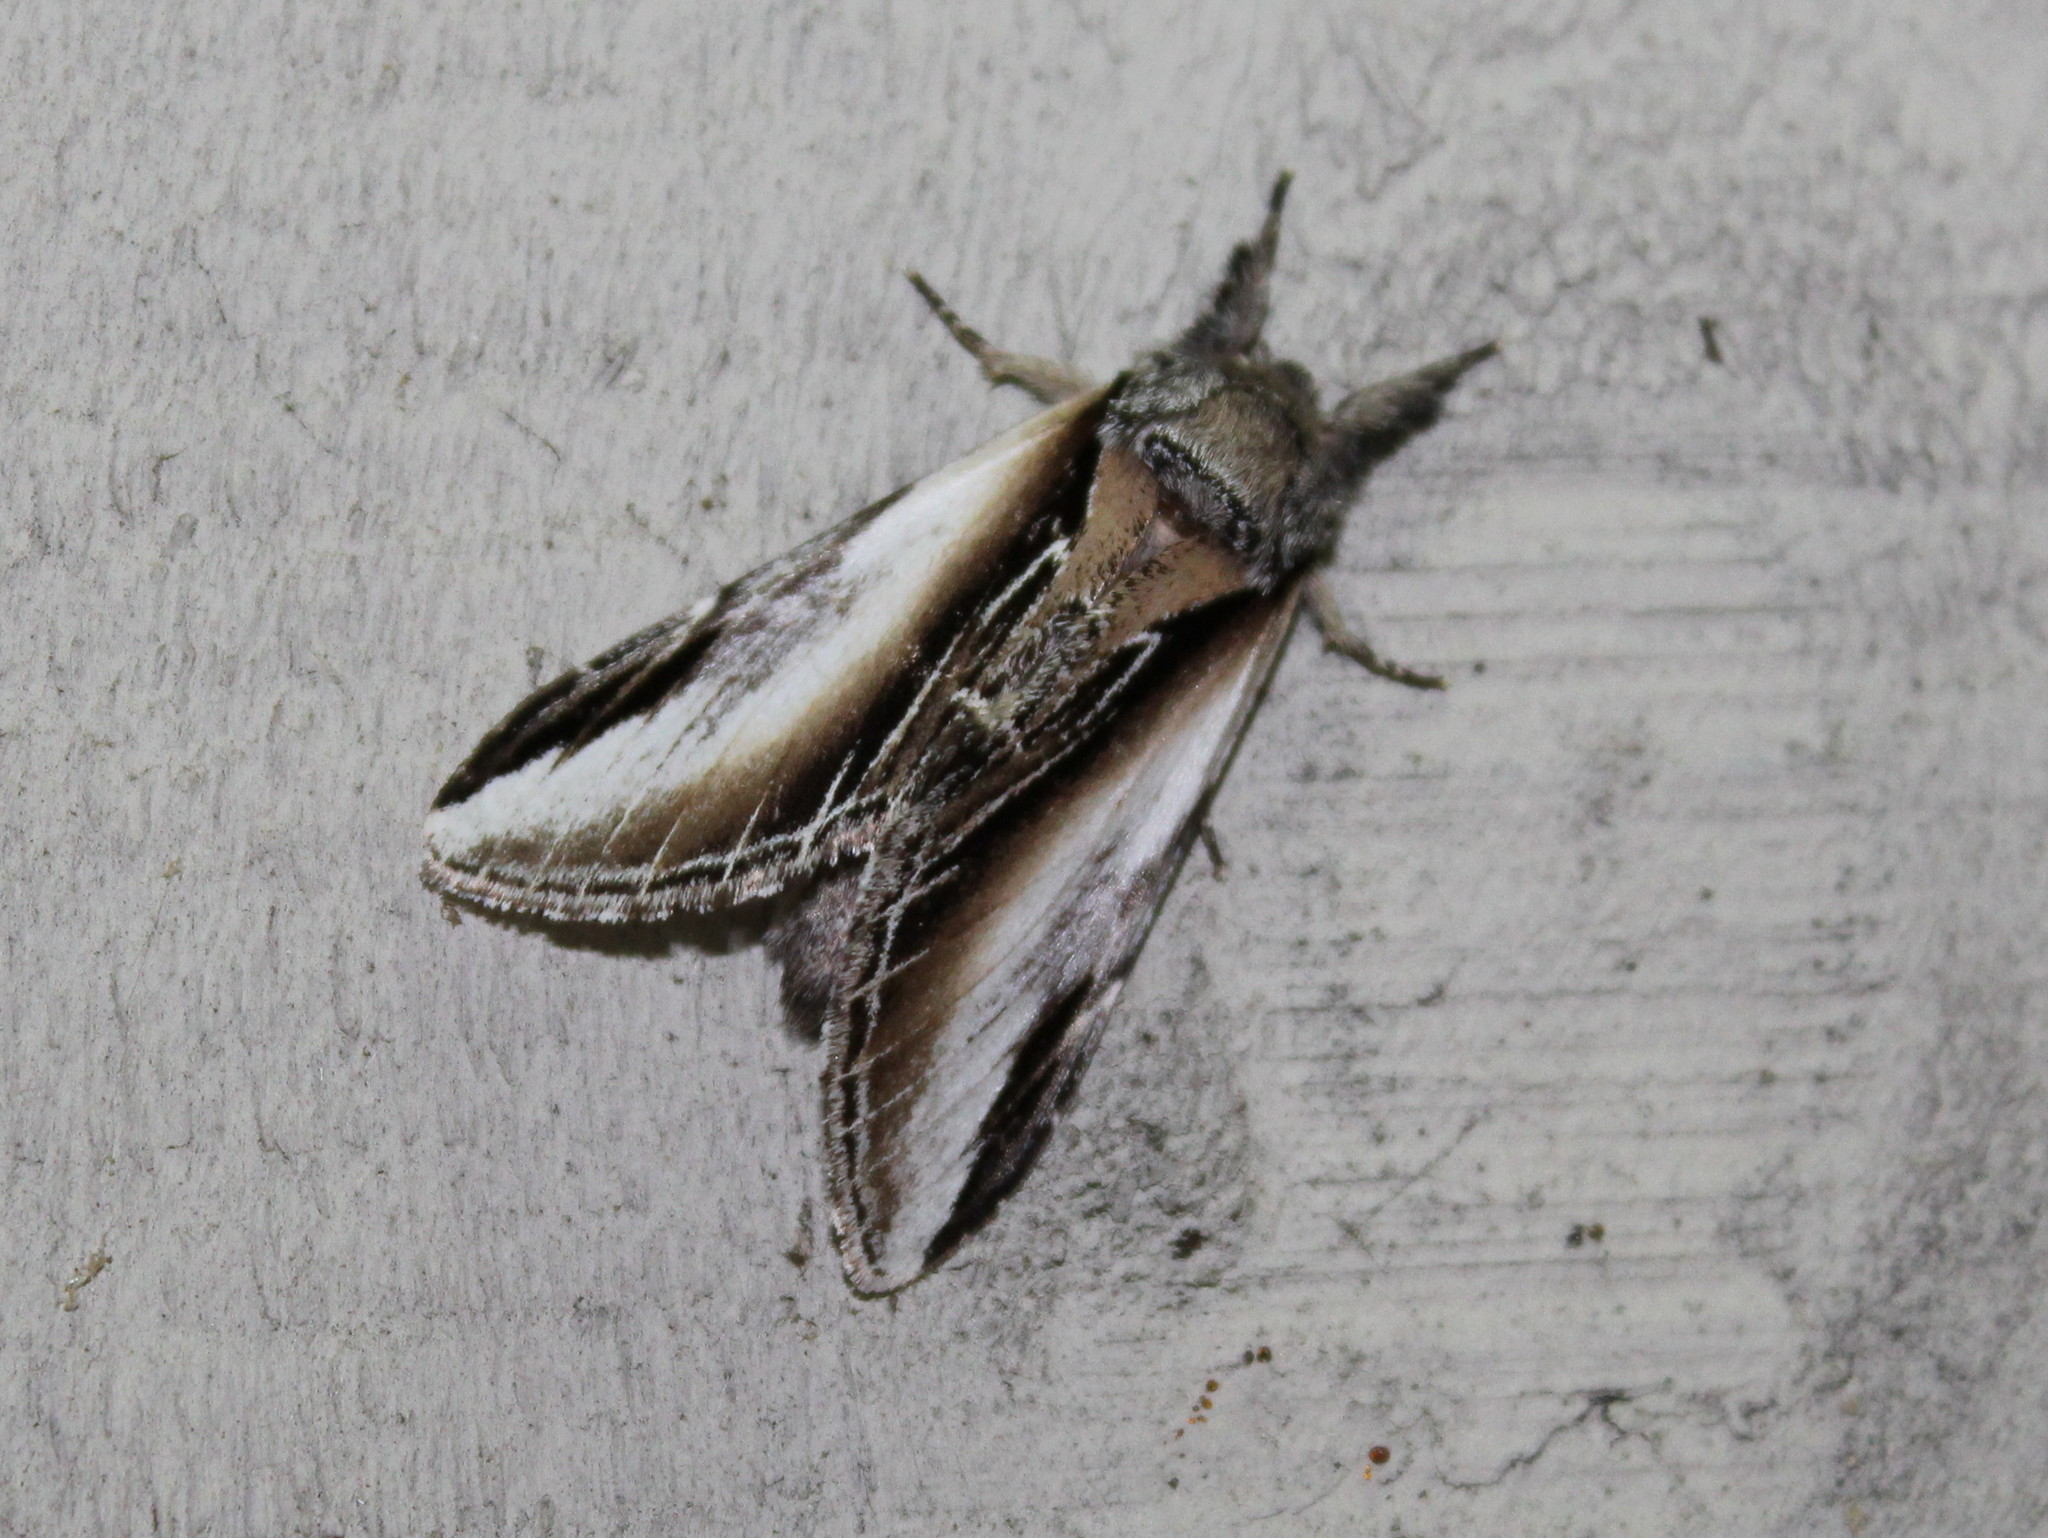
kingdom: Animalia
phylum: Arthropoda
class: Insecta
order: Lepidoptera
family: Notodontidae
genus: Pheosia
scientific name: Pheosia rimosa
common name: Black-rimmed prominent
